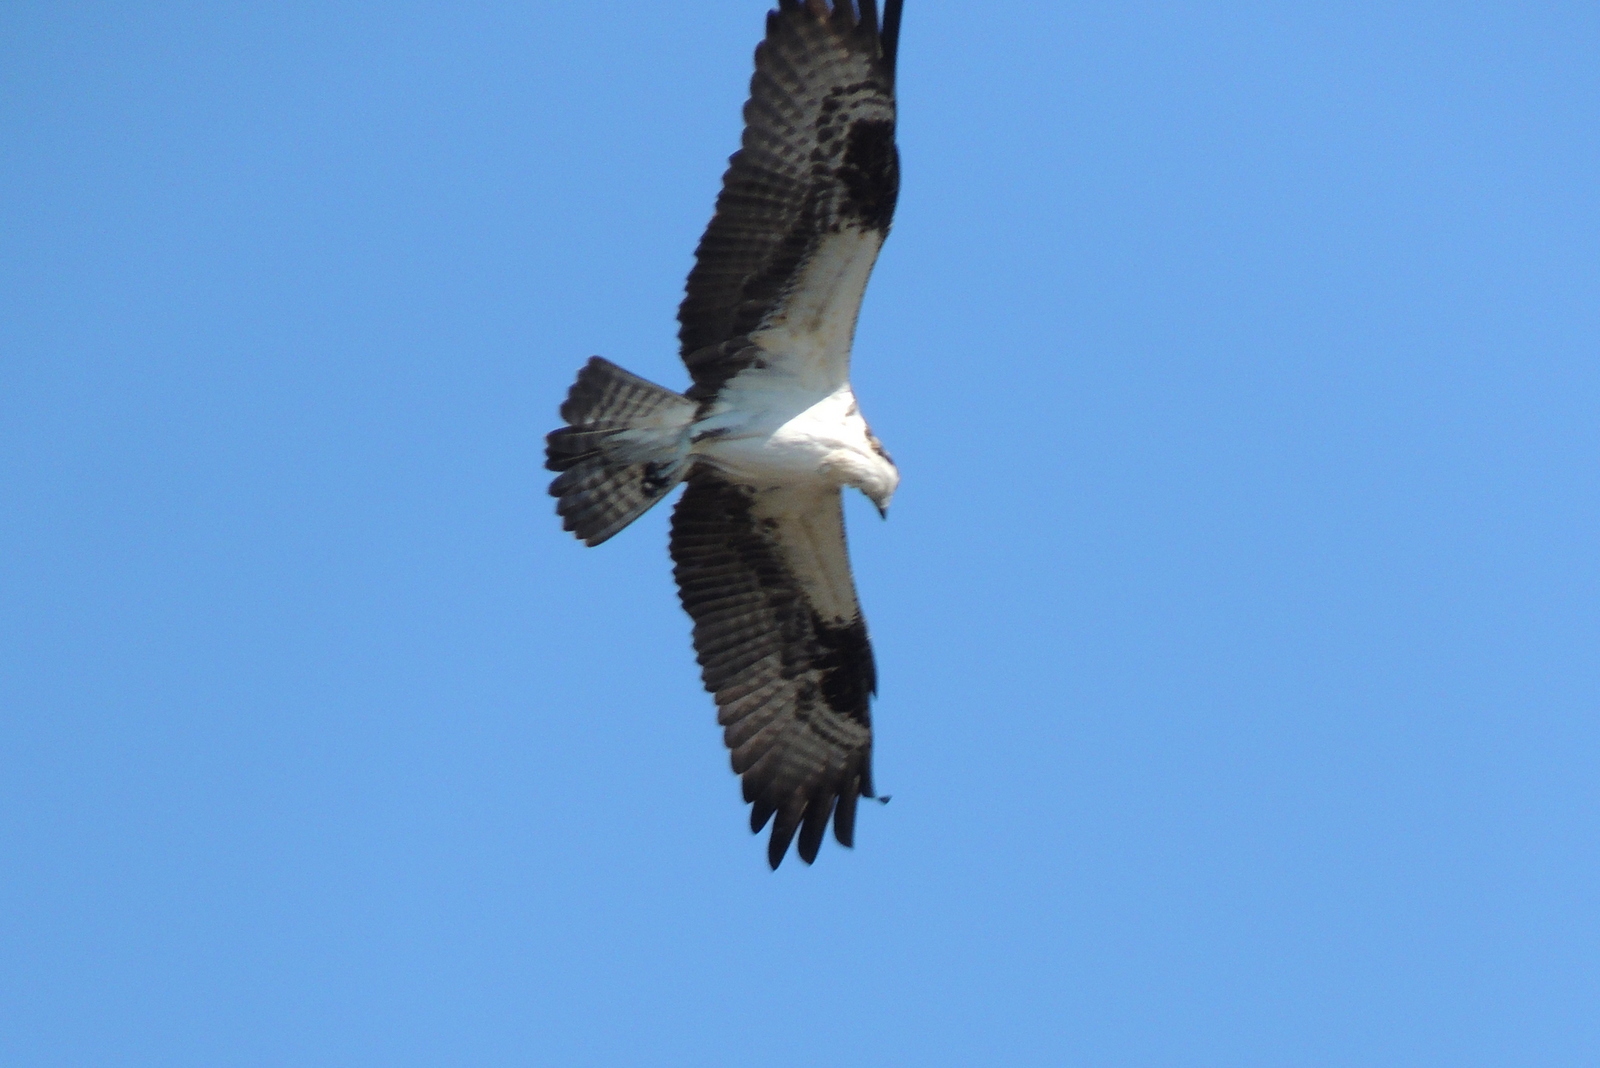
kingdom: Animalia
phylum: Chordata
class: Aves
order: Accipitriformes
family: Pandionidae
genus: Pandion
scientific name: Pandion haliaetus
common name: Osprey
